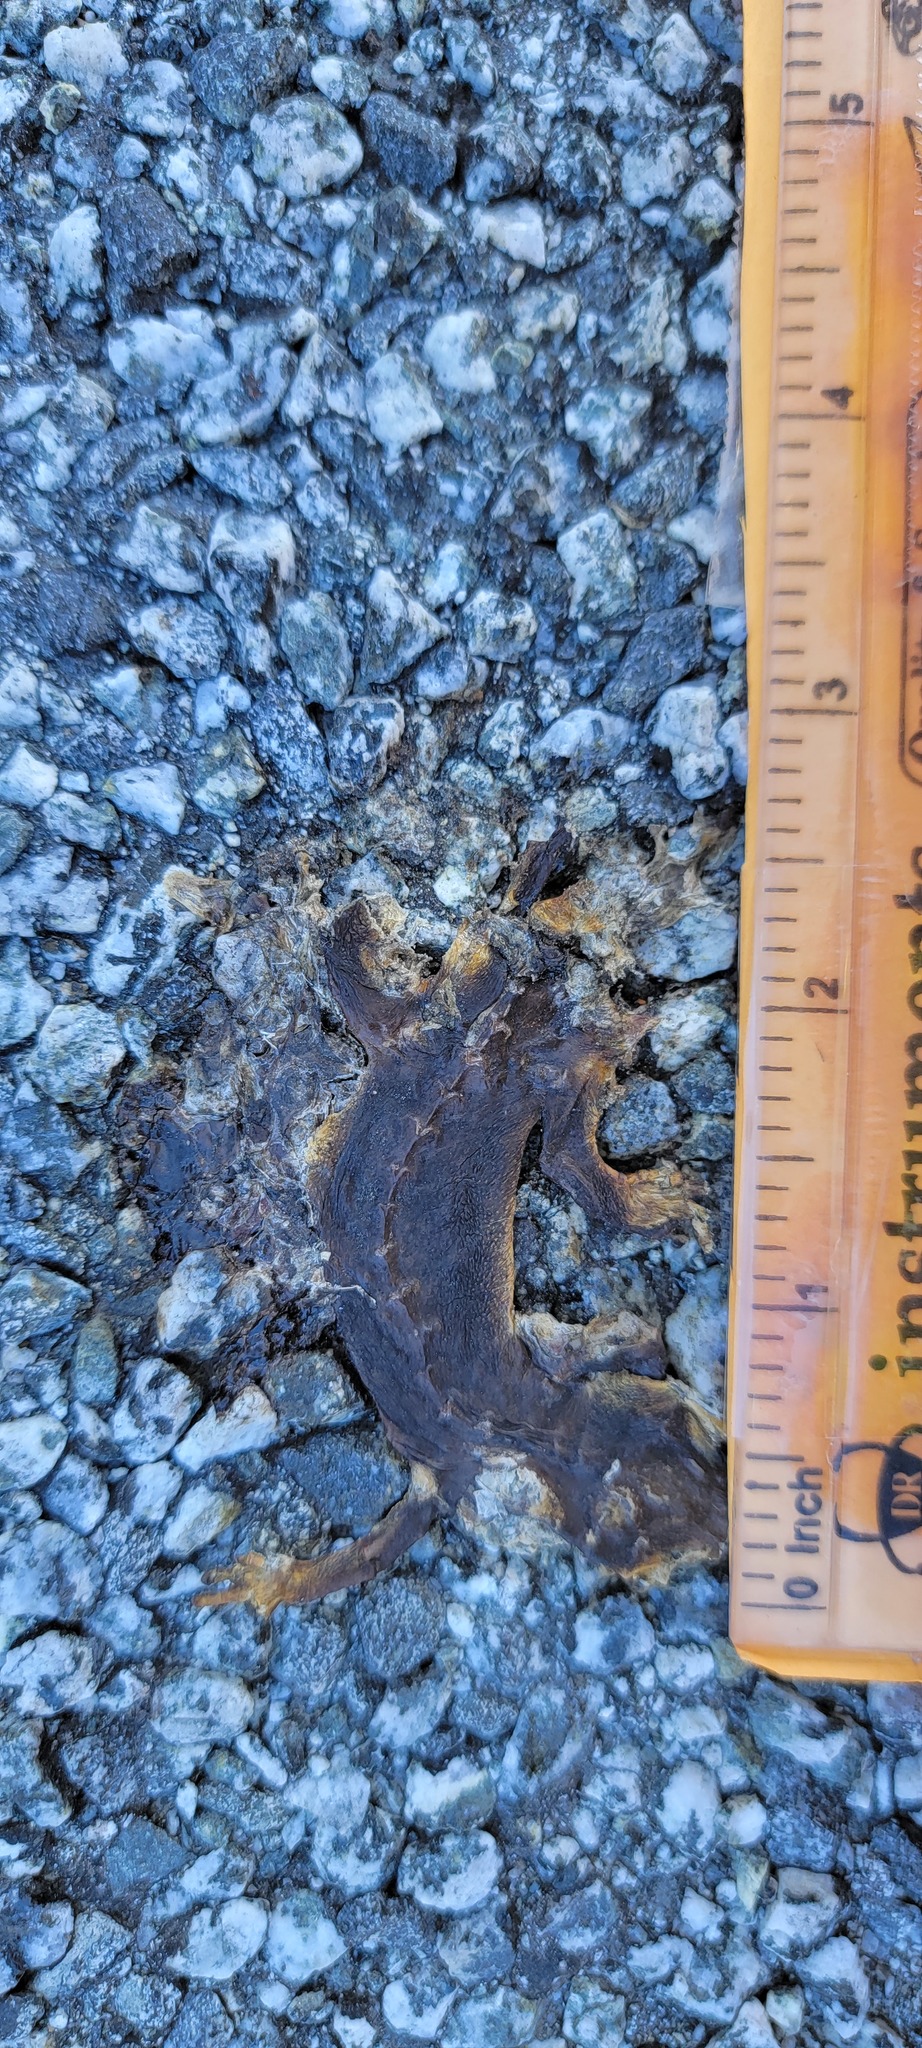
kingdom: Animalia
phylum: Chordata
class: Amphibia
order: Caudata
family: Salamandridae
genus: Taricha
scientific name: Taricha
